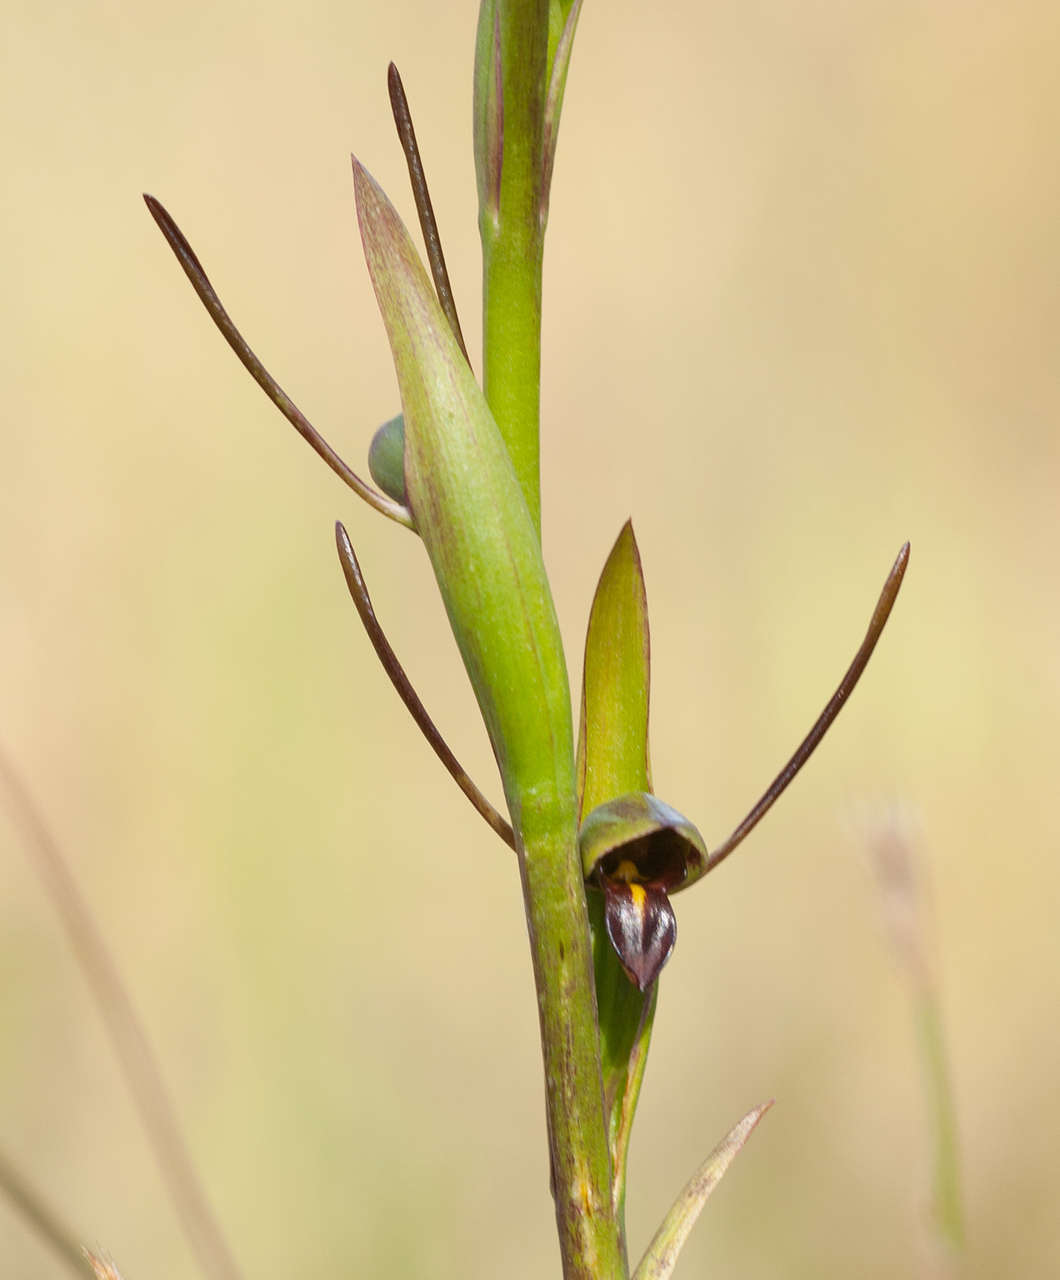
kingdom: Plantae
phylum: Tracheophyta
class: Liliopsida
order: Asparagales
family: Orchidaceae
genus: Orthoceras
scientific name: Orthoceras strictum
